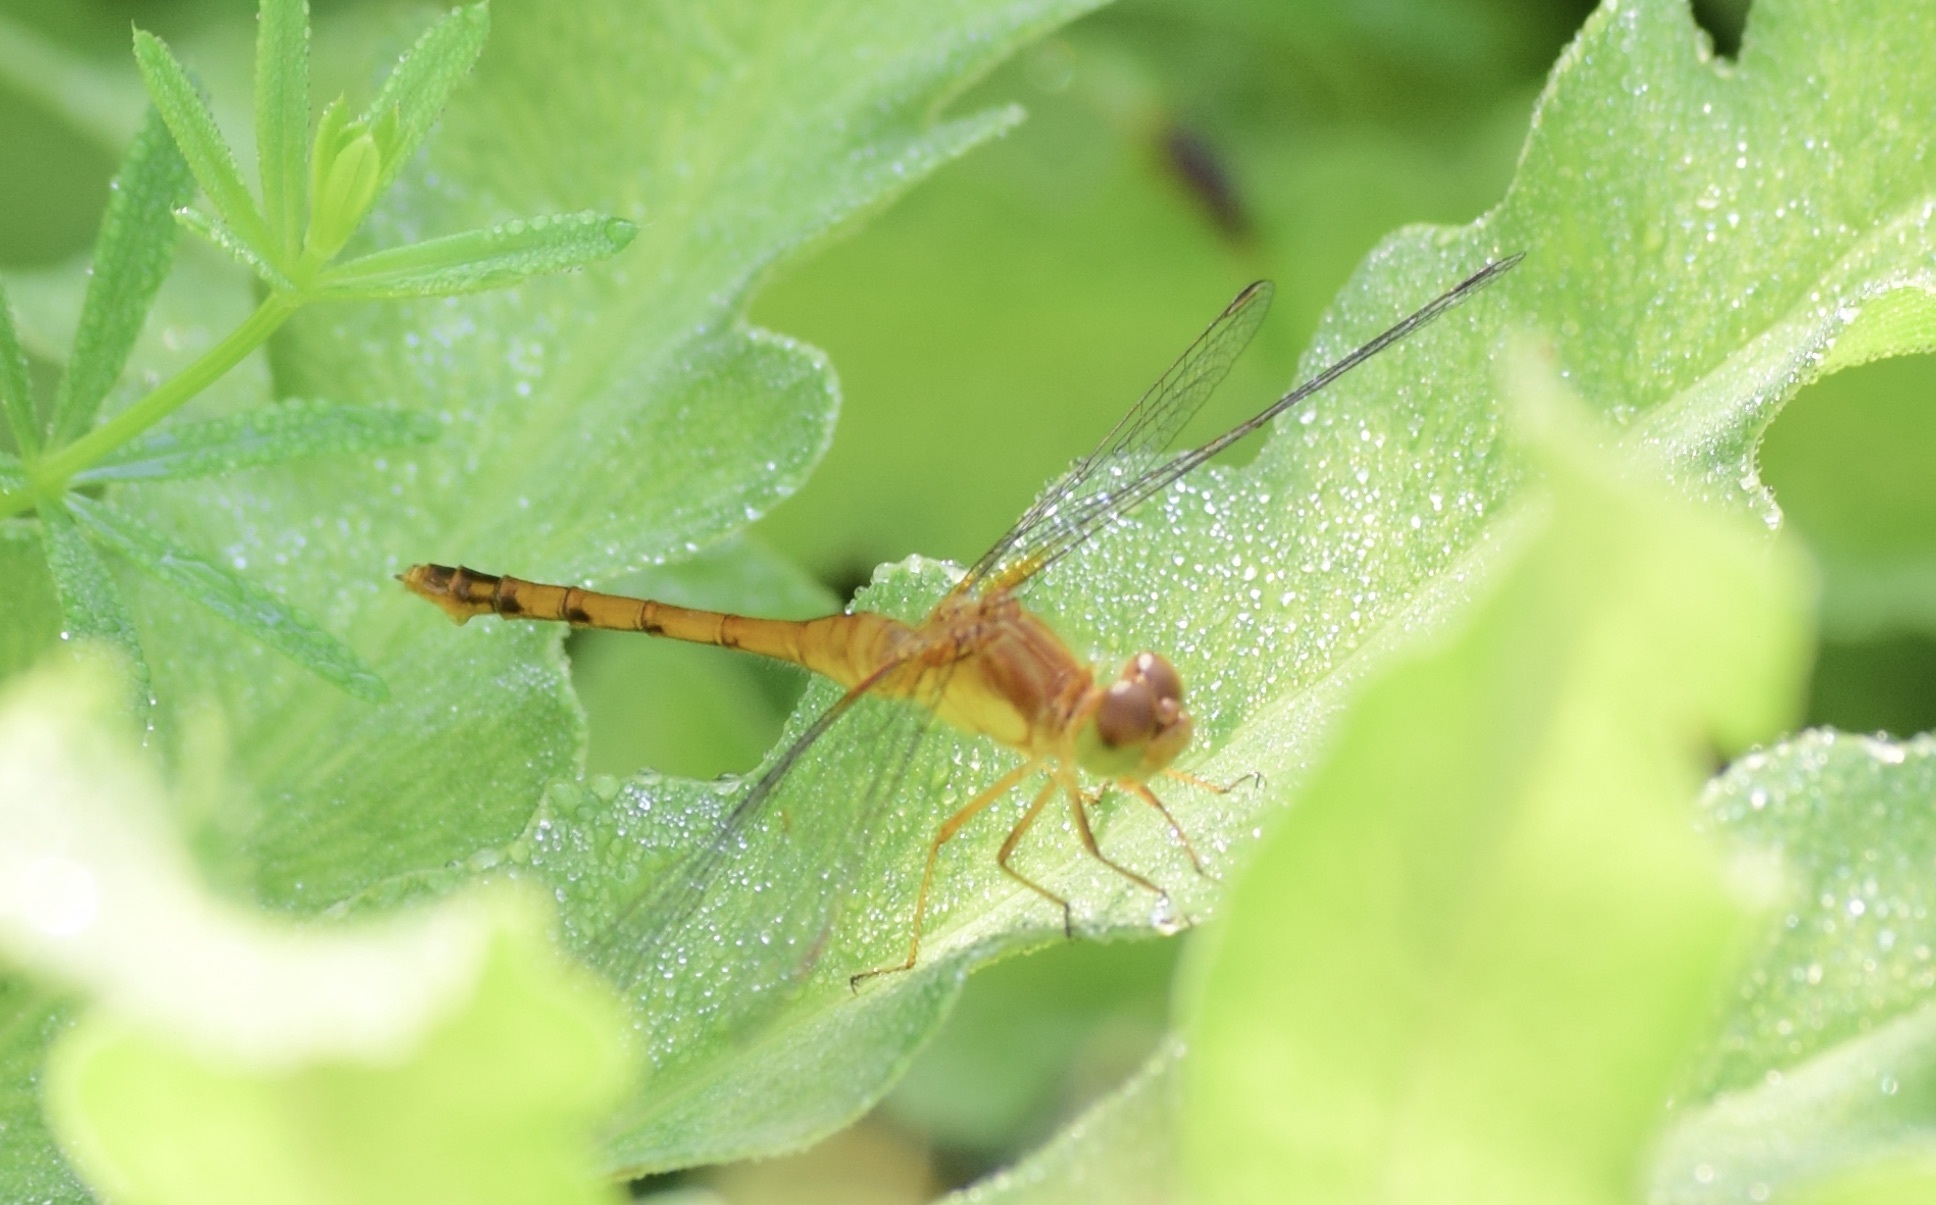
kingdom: Animalia
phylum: Arthropoda
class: Insecta
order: Odonata
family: Libellulidae
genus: Sympetrum
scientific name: Sympetrum vicinum
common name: Autumn meadowhawk
